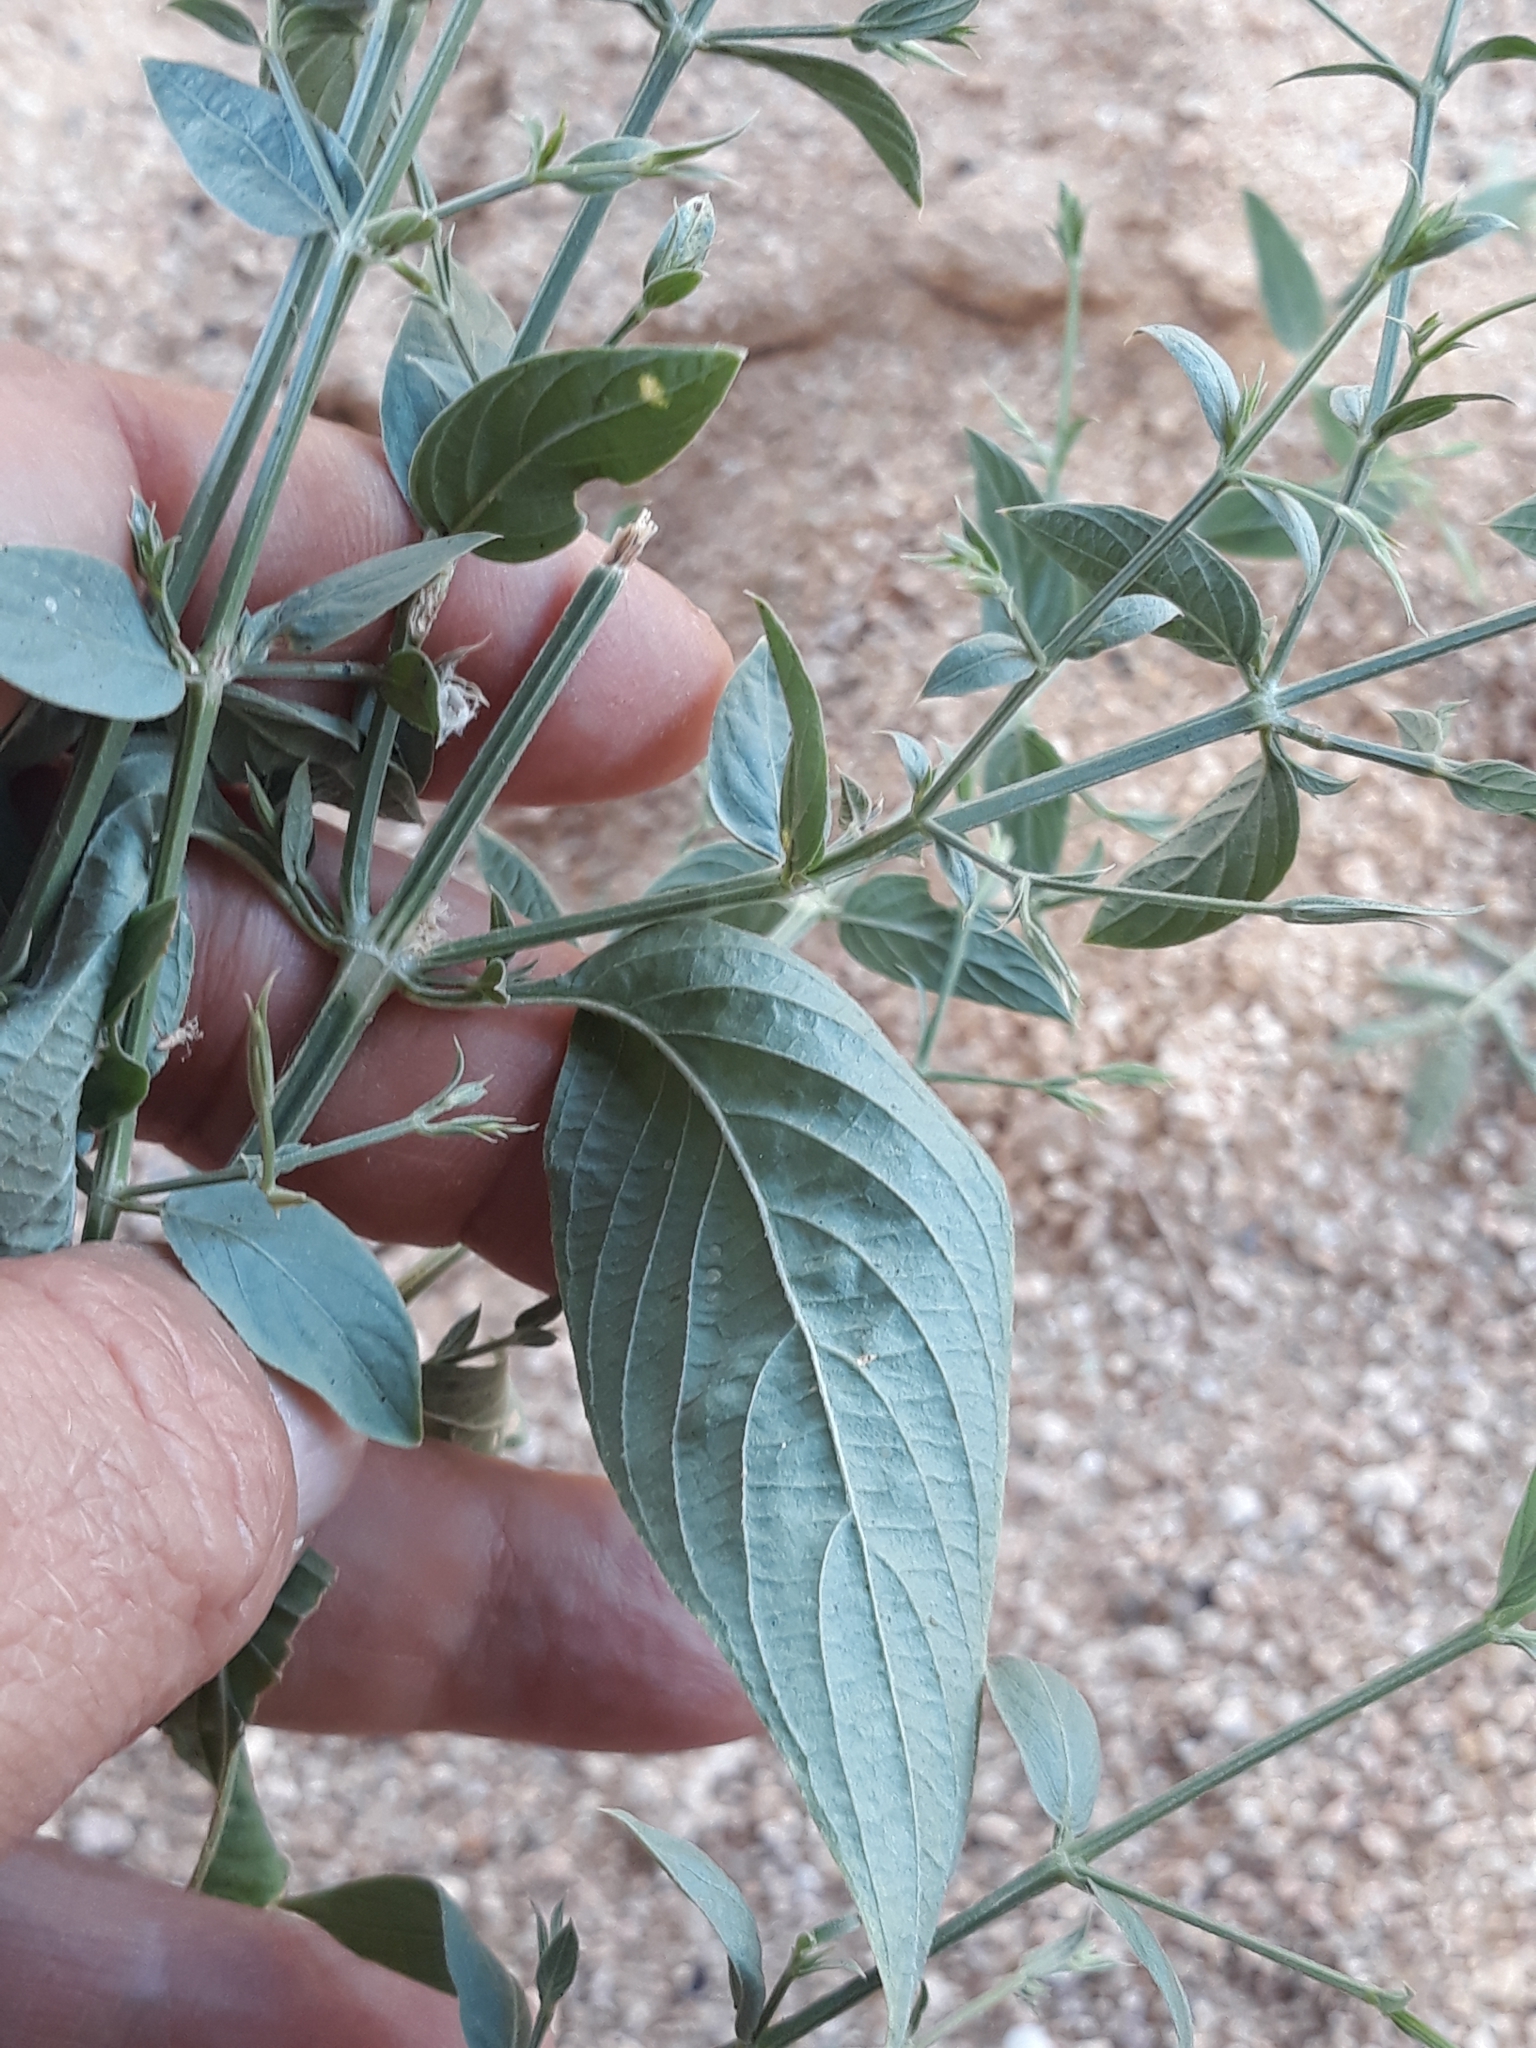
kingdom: Plantae
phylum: Tracheophyta
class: Magnoliopsida
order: Lamiales
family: Acanthaceae
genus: Dicliptera
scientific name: Dicliptera paniculata
